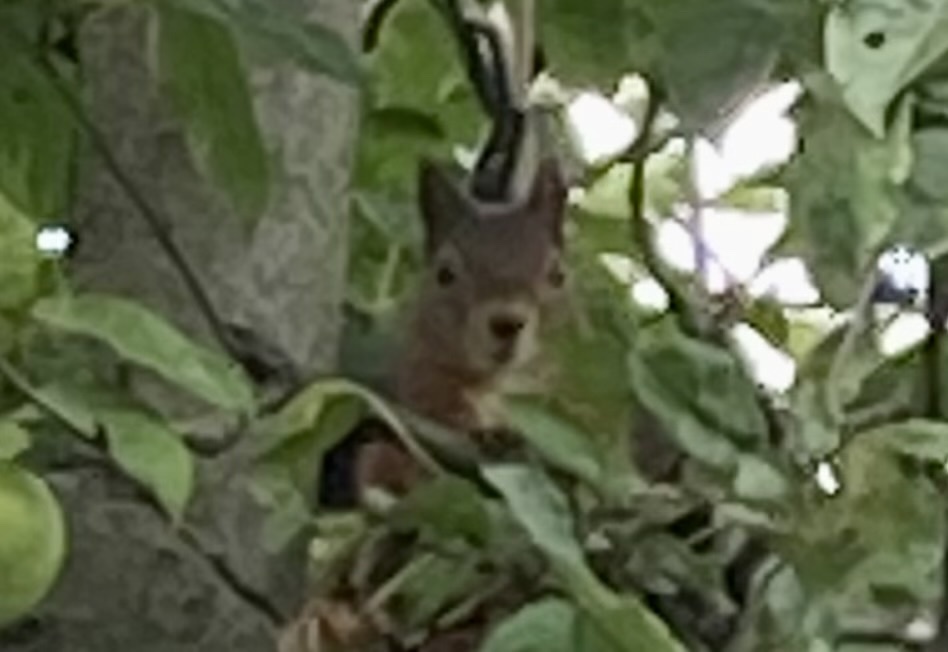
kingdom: Animalia
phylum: Chordata
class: Mammalia
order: Rodentia
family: Sciuridae
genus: Sciurus
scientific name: Sciurus vulgaris
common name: Eurasian red squirrel
